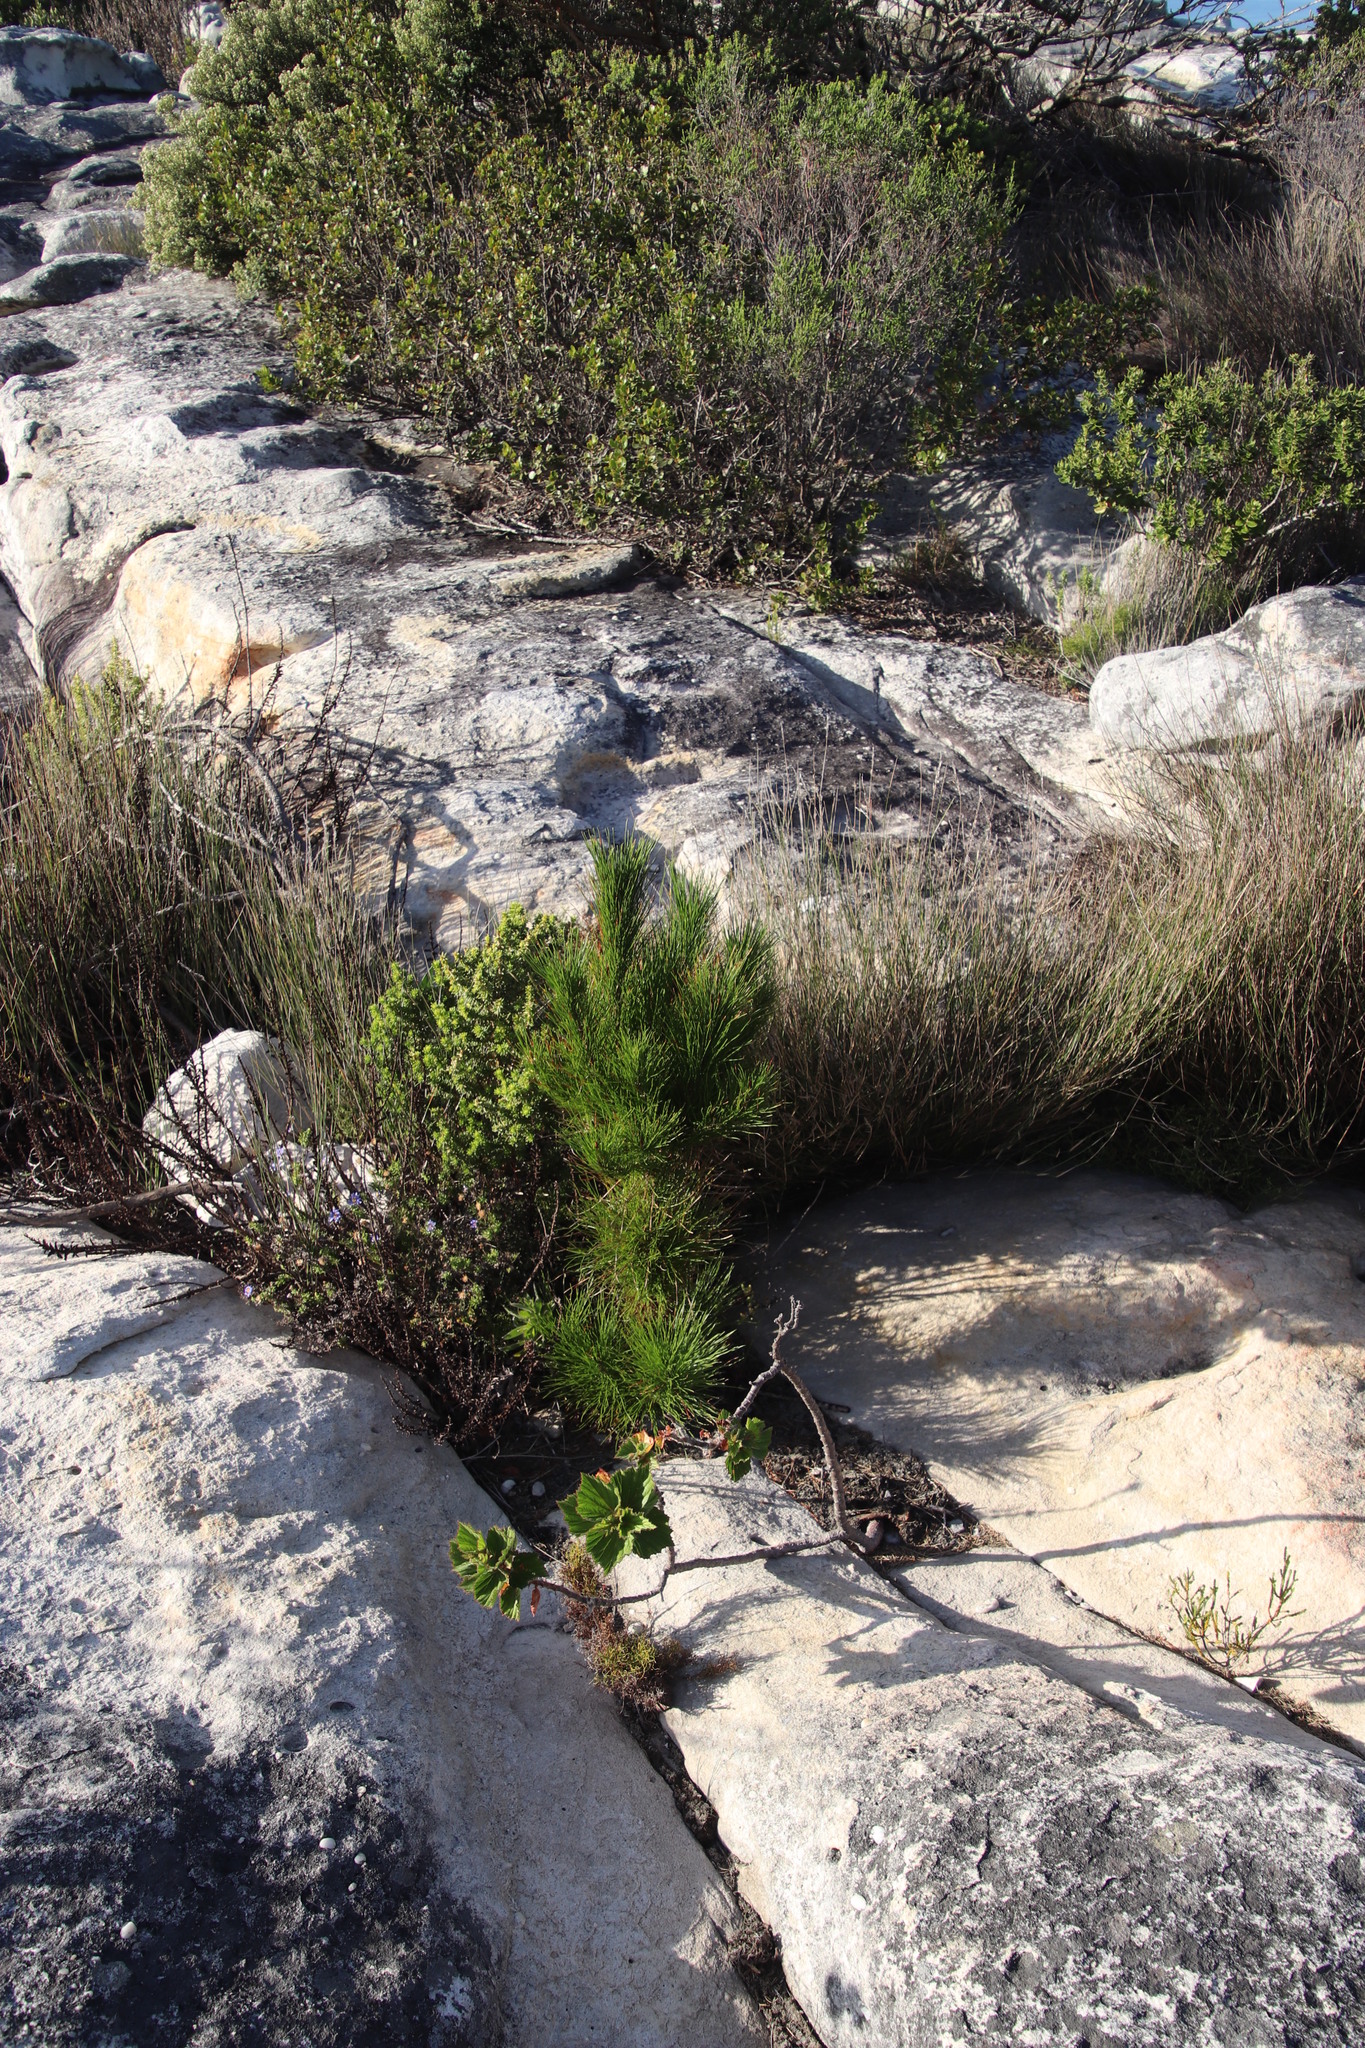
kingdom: Plantae
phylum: Tracheophyta
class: Pinopsida
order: Pinales
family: Pinaceae
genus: Pinus
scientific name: Pinus radiata
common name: Monterey pine
